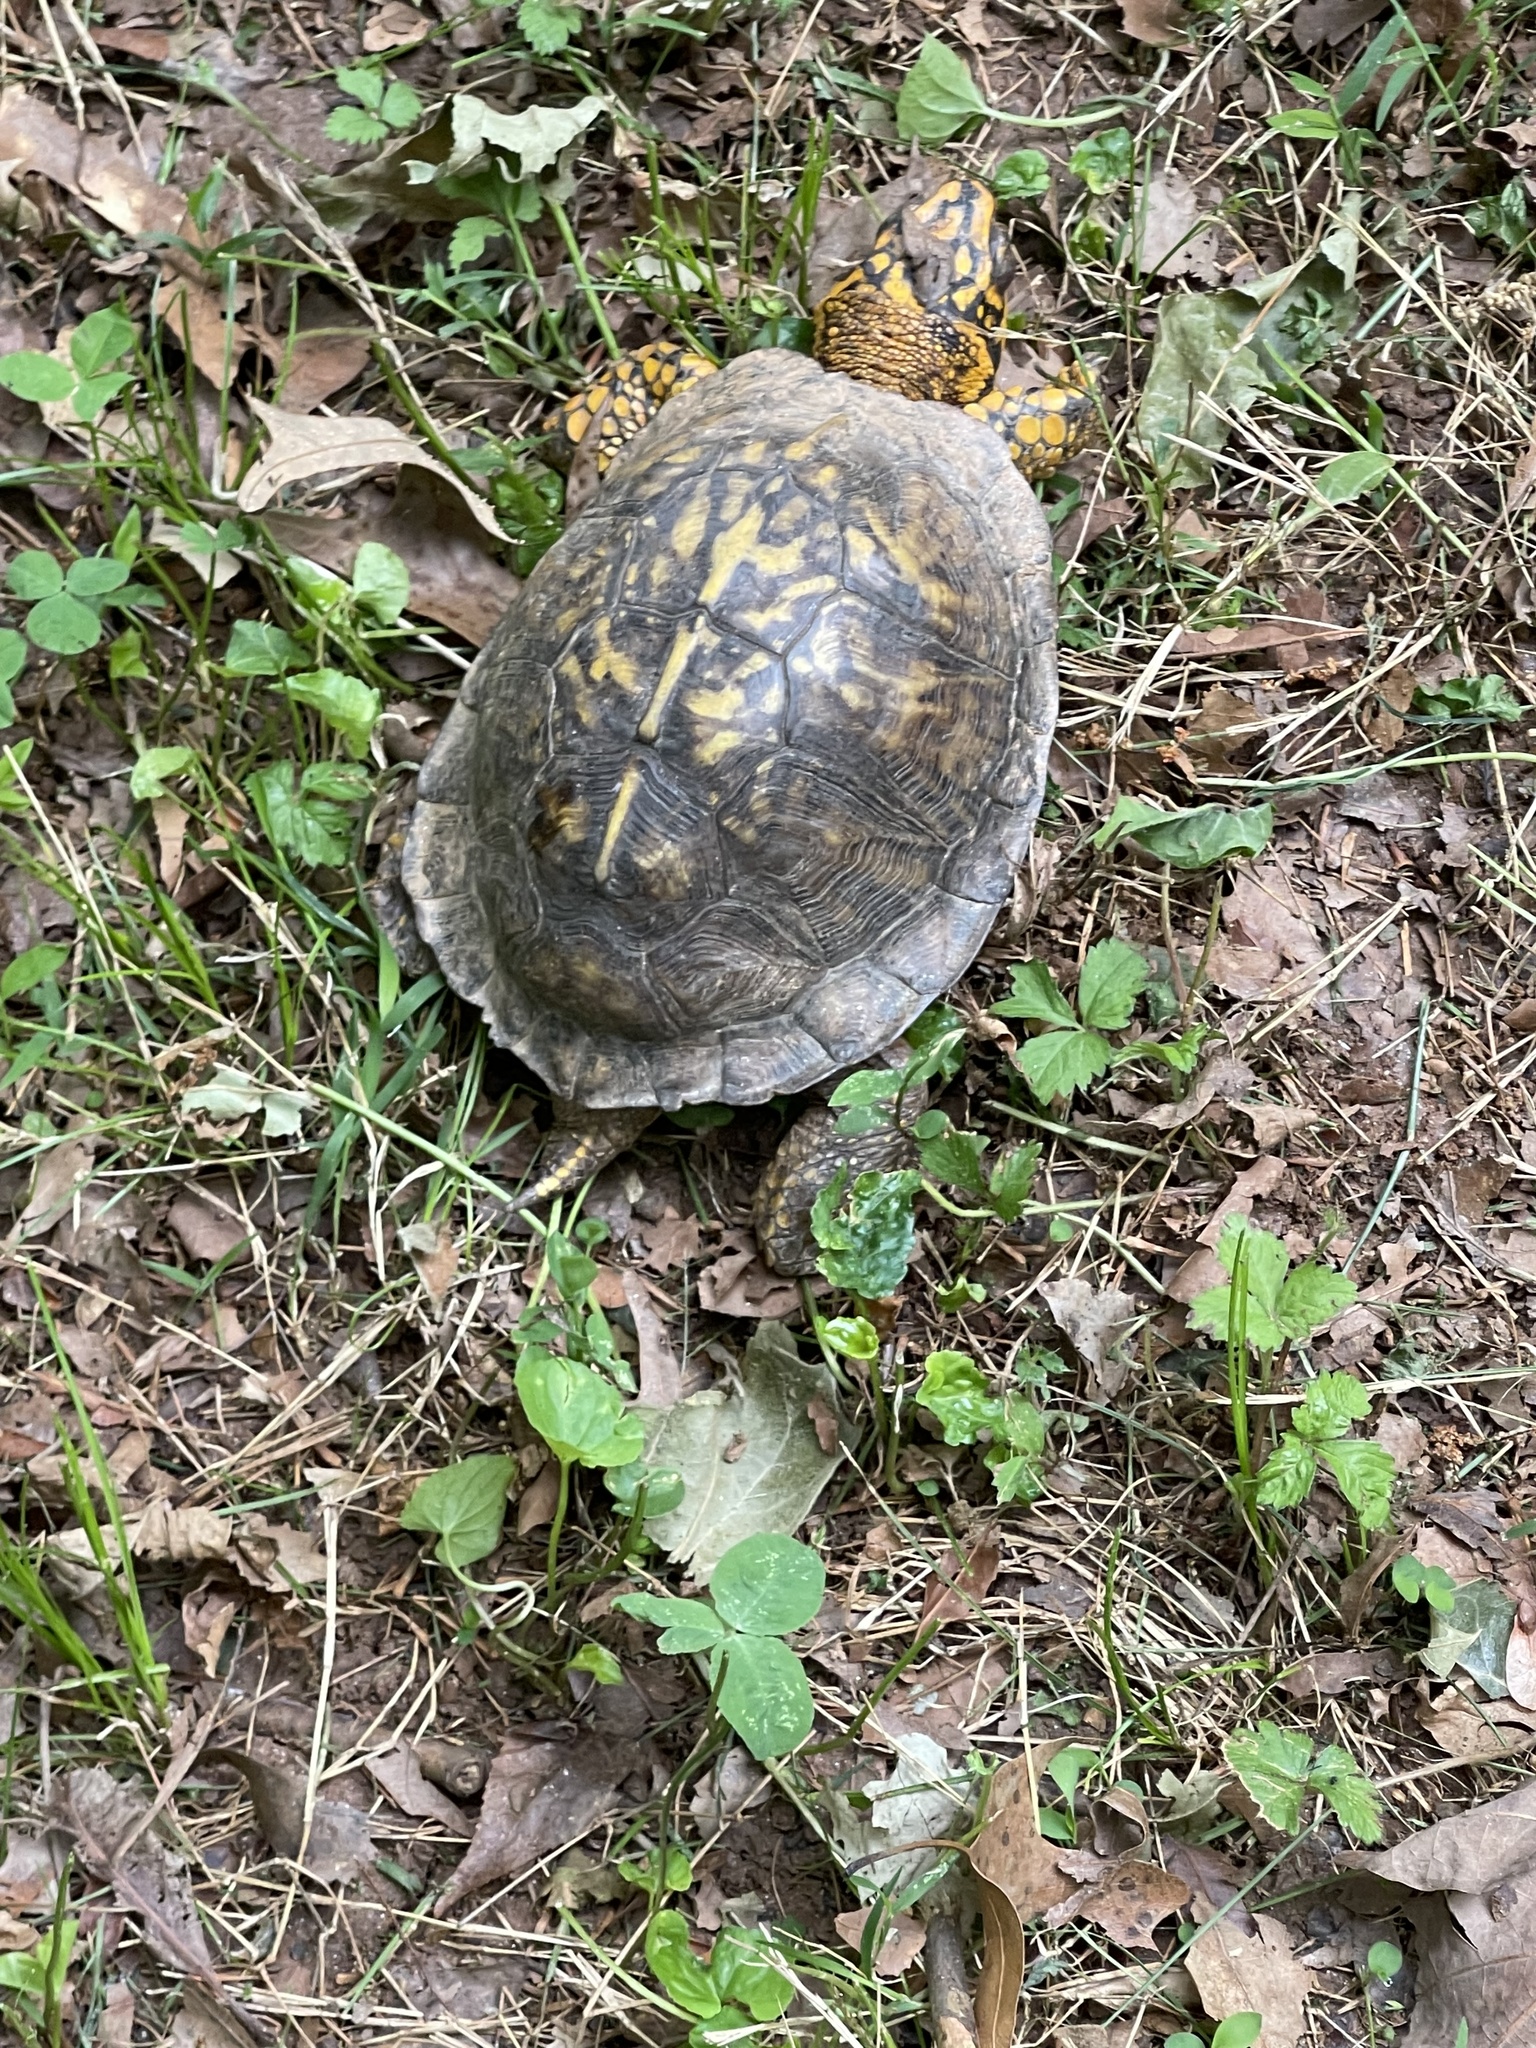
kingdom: Animalia
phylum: Chordata
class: Testudines
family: Emydidae
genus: Terrapene
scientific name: Terrapene carolina
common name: Common box turtle
